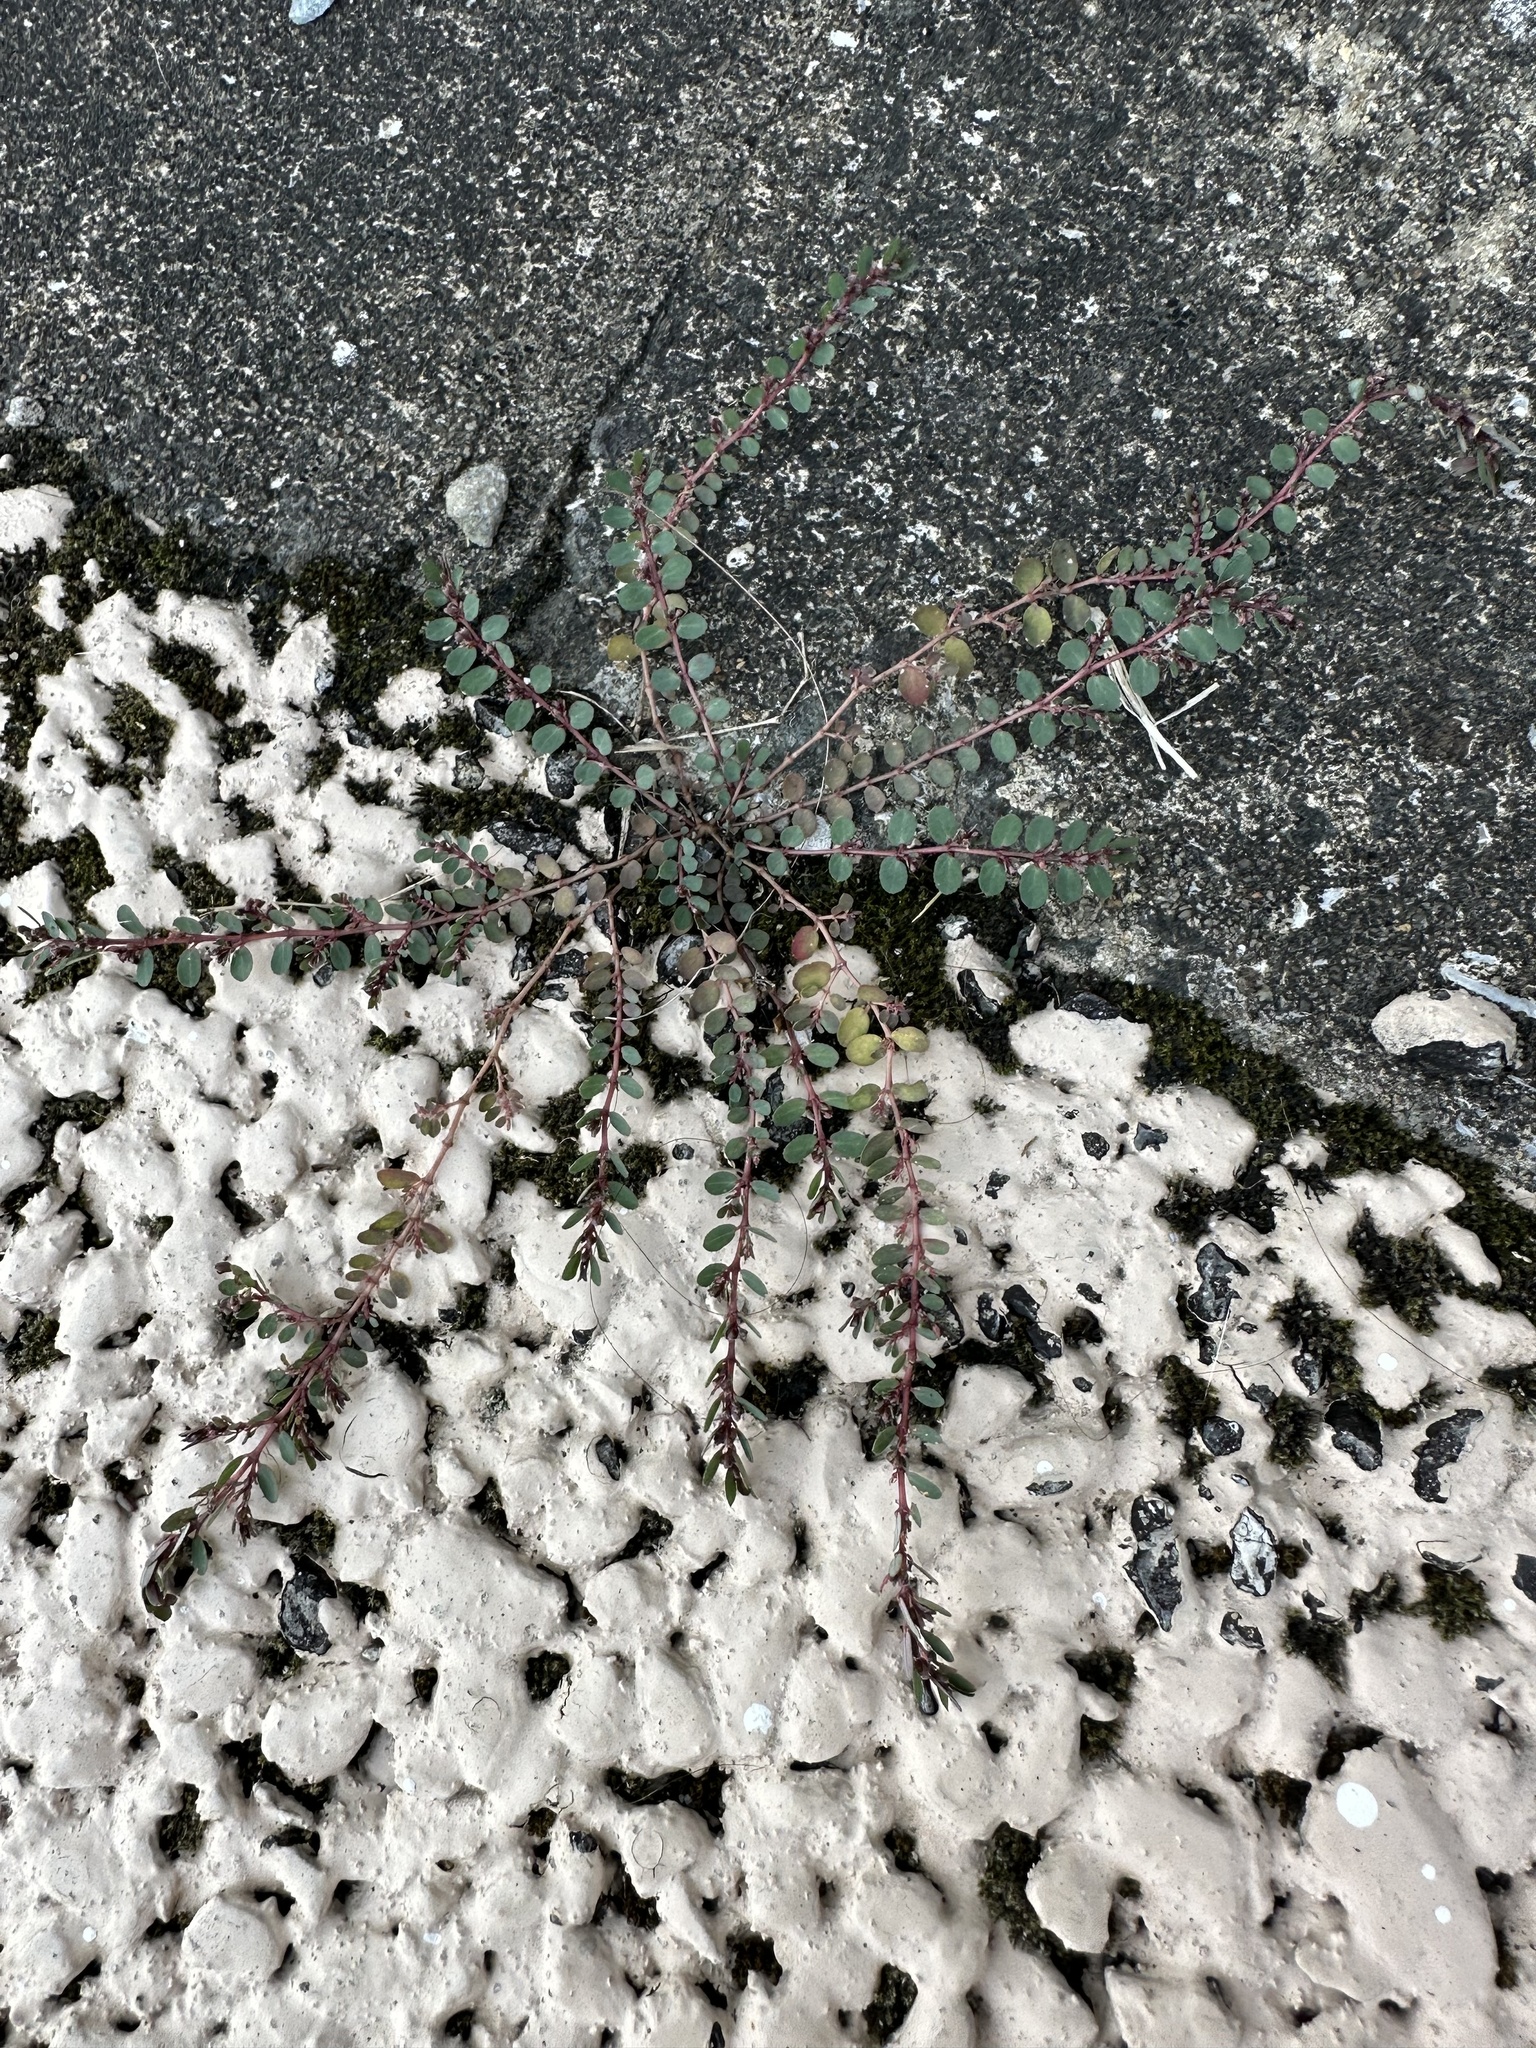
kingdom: Plantae
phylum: Tracheophyta
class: Magnoliopsida
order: Malpighiales
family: Euphorbiaceae
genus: Euphorbia
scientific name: Euphorbia prostrata
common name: Prostrate sandmat
